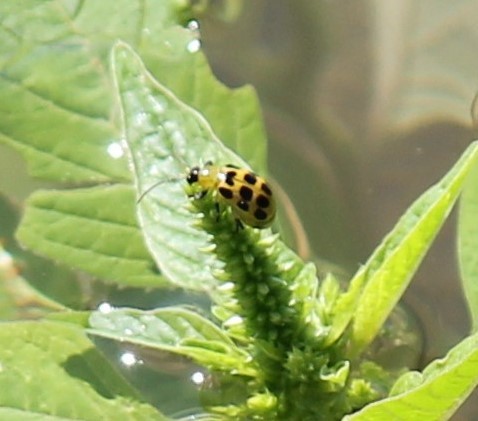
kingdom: Animalia
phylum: Arthropoda
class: Insecta
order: Coleoptera
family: Chrysomelidae
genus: Diabrotica
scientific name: Diabrotica undecimpunctata
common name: Spotted cucumber beetle
